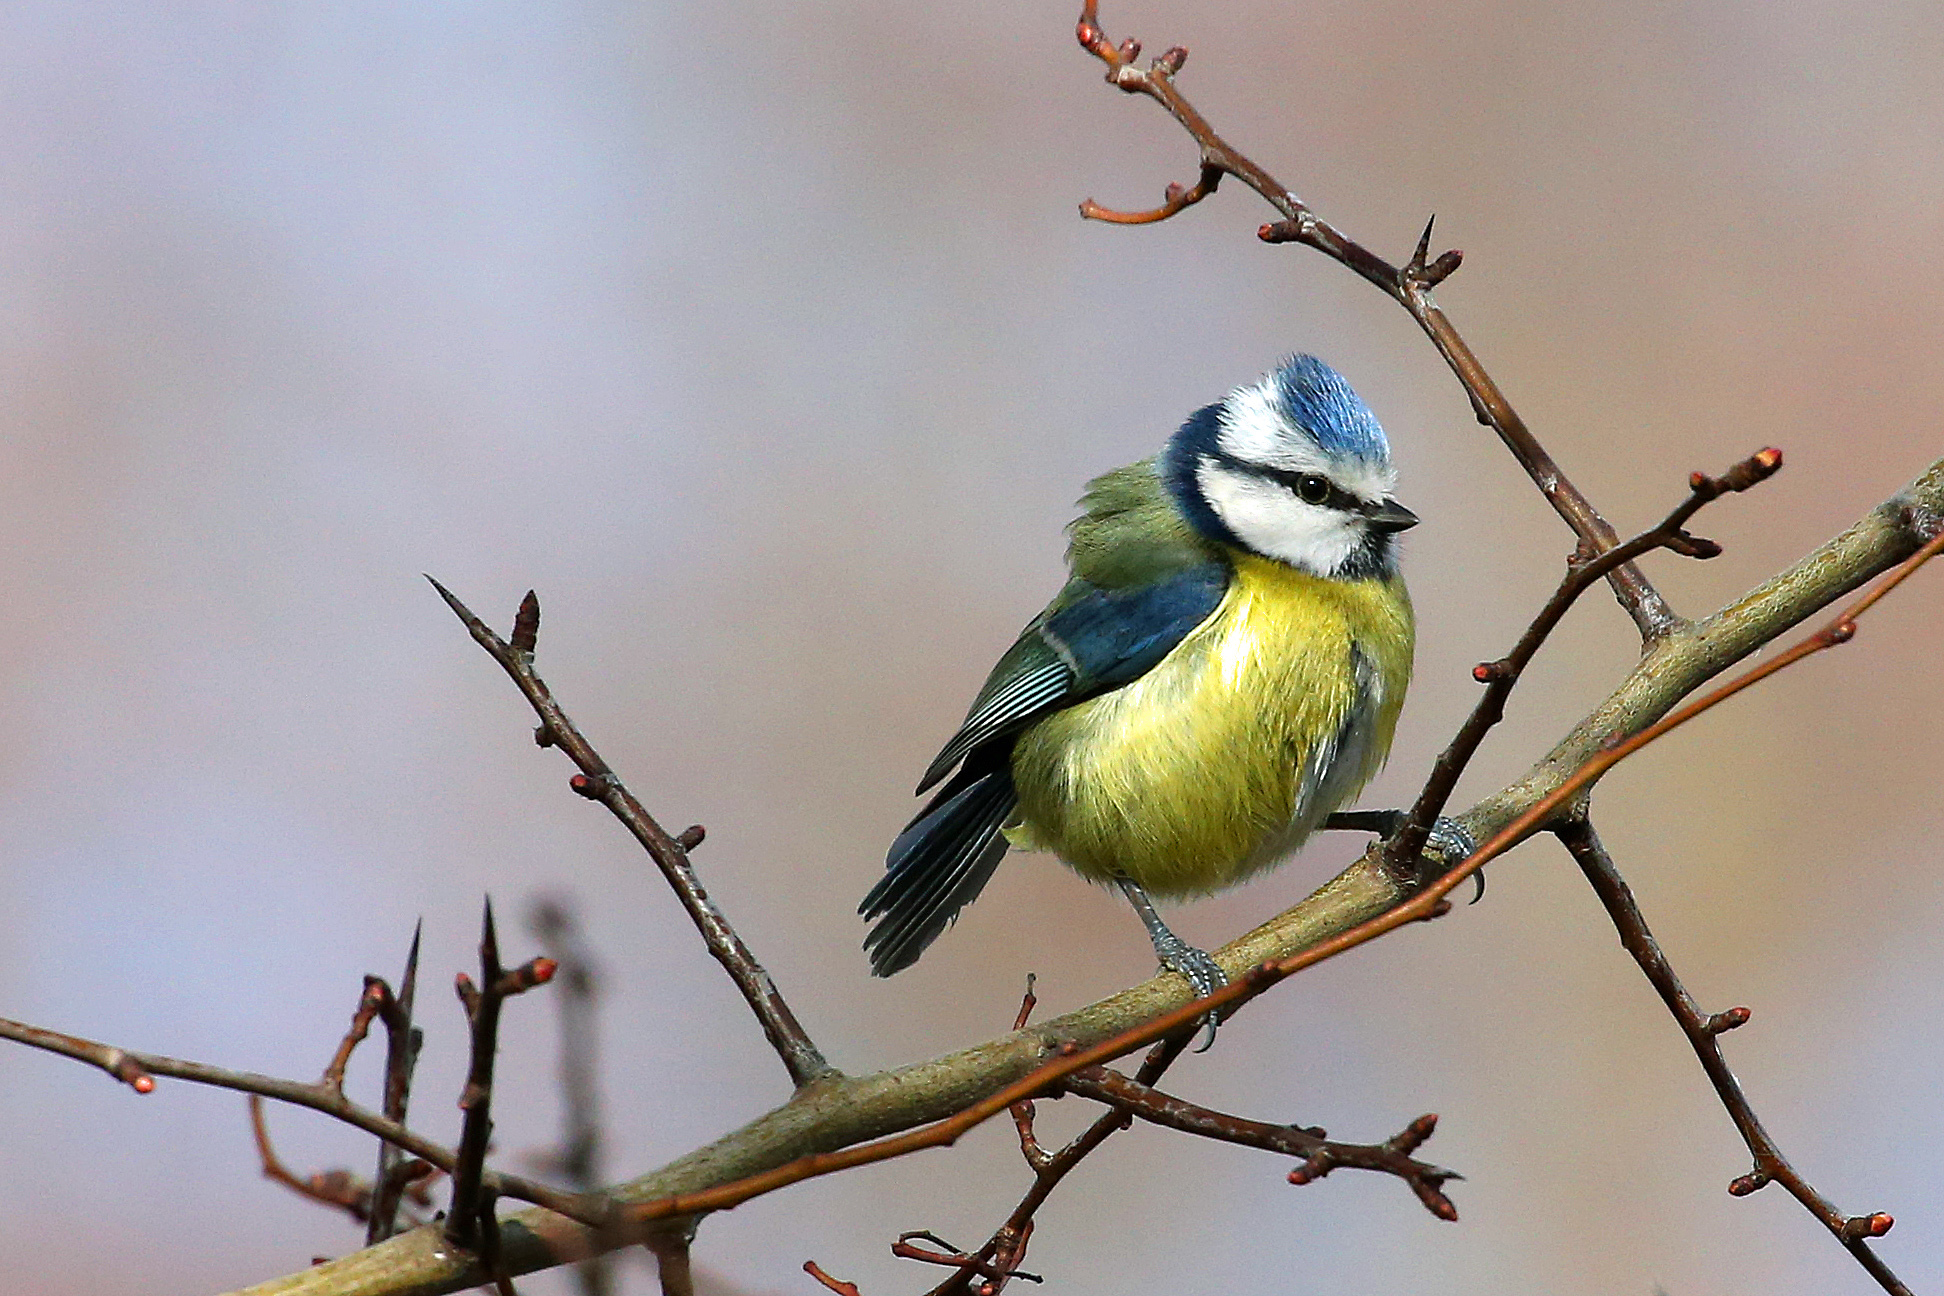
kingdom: Animalia
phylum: Chordata
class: Aves
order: Passeriformes
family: Paridae
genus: Cyanistes
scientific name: Cyanistes caeruleus
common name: Eurasian blue tit
